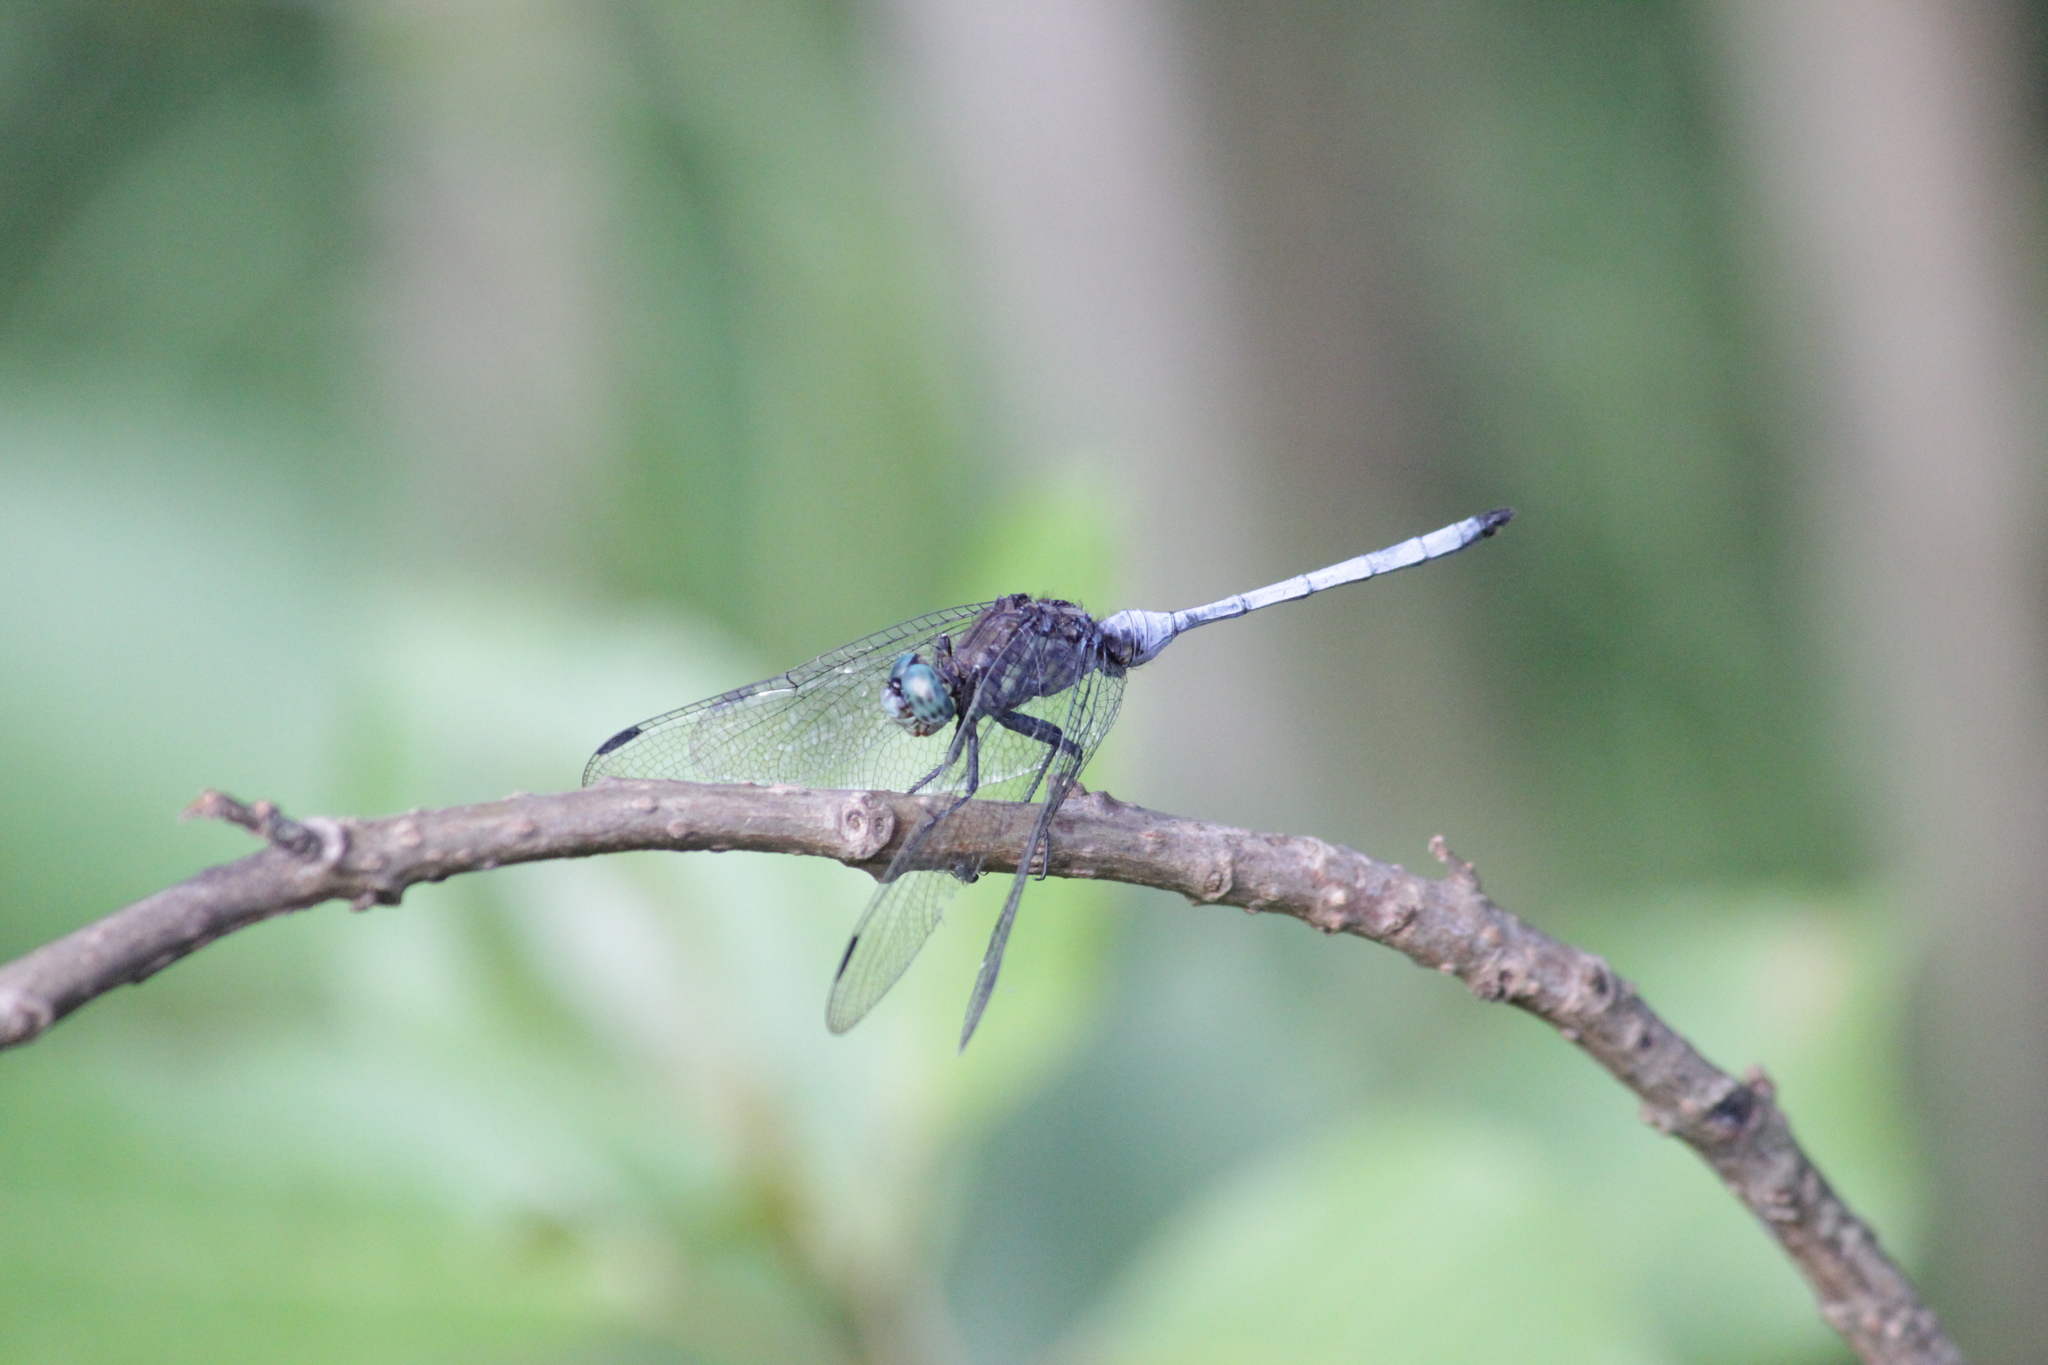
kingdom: Animalia
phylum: Arthropoda
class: Insecta
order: Odonata
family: Libellulidae
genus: Orthetrum
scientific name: Orthetrum julia
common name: Julia skimmer
